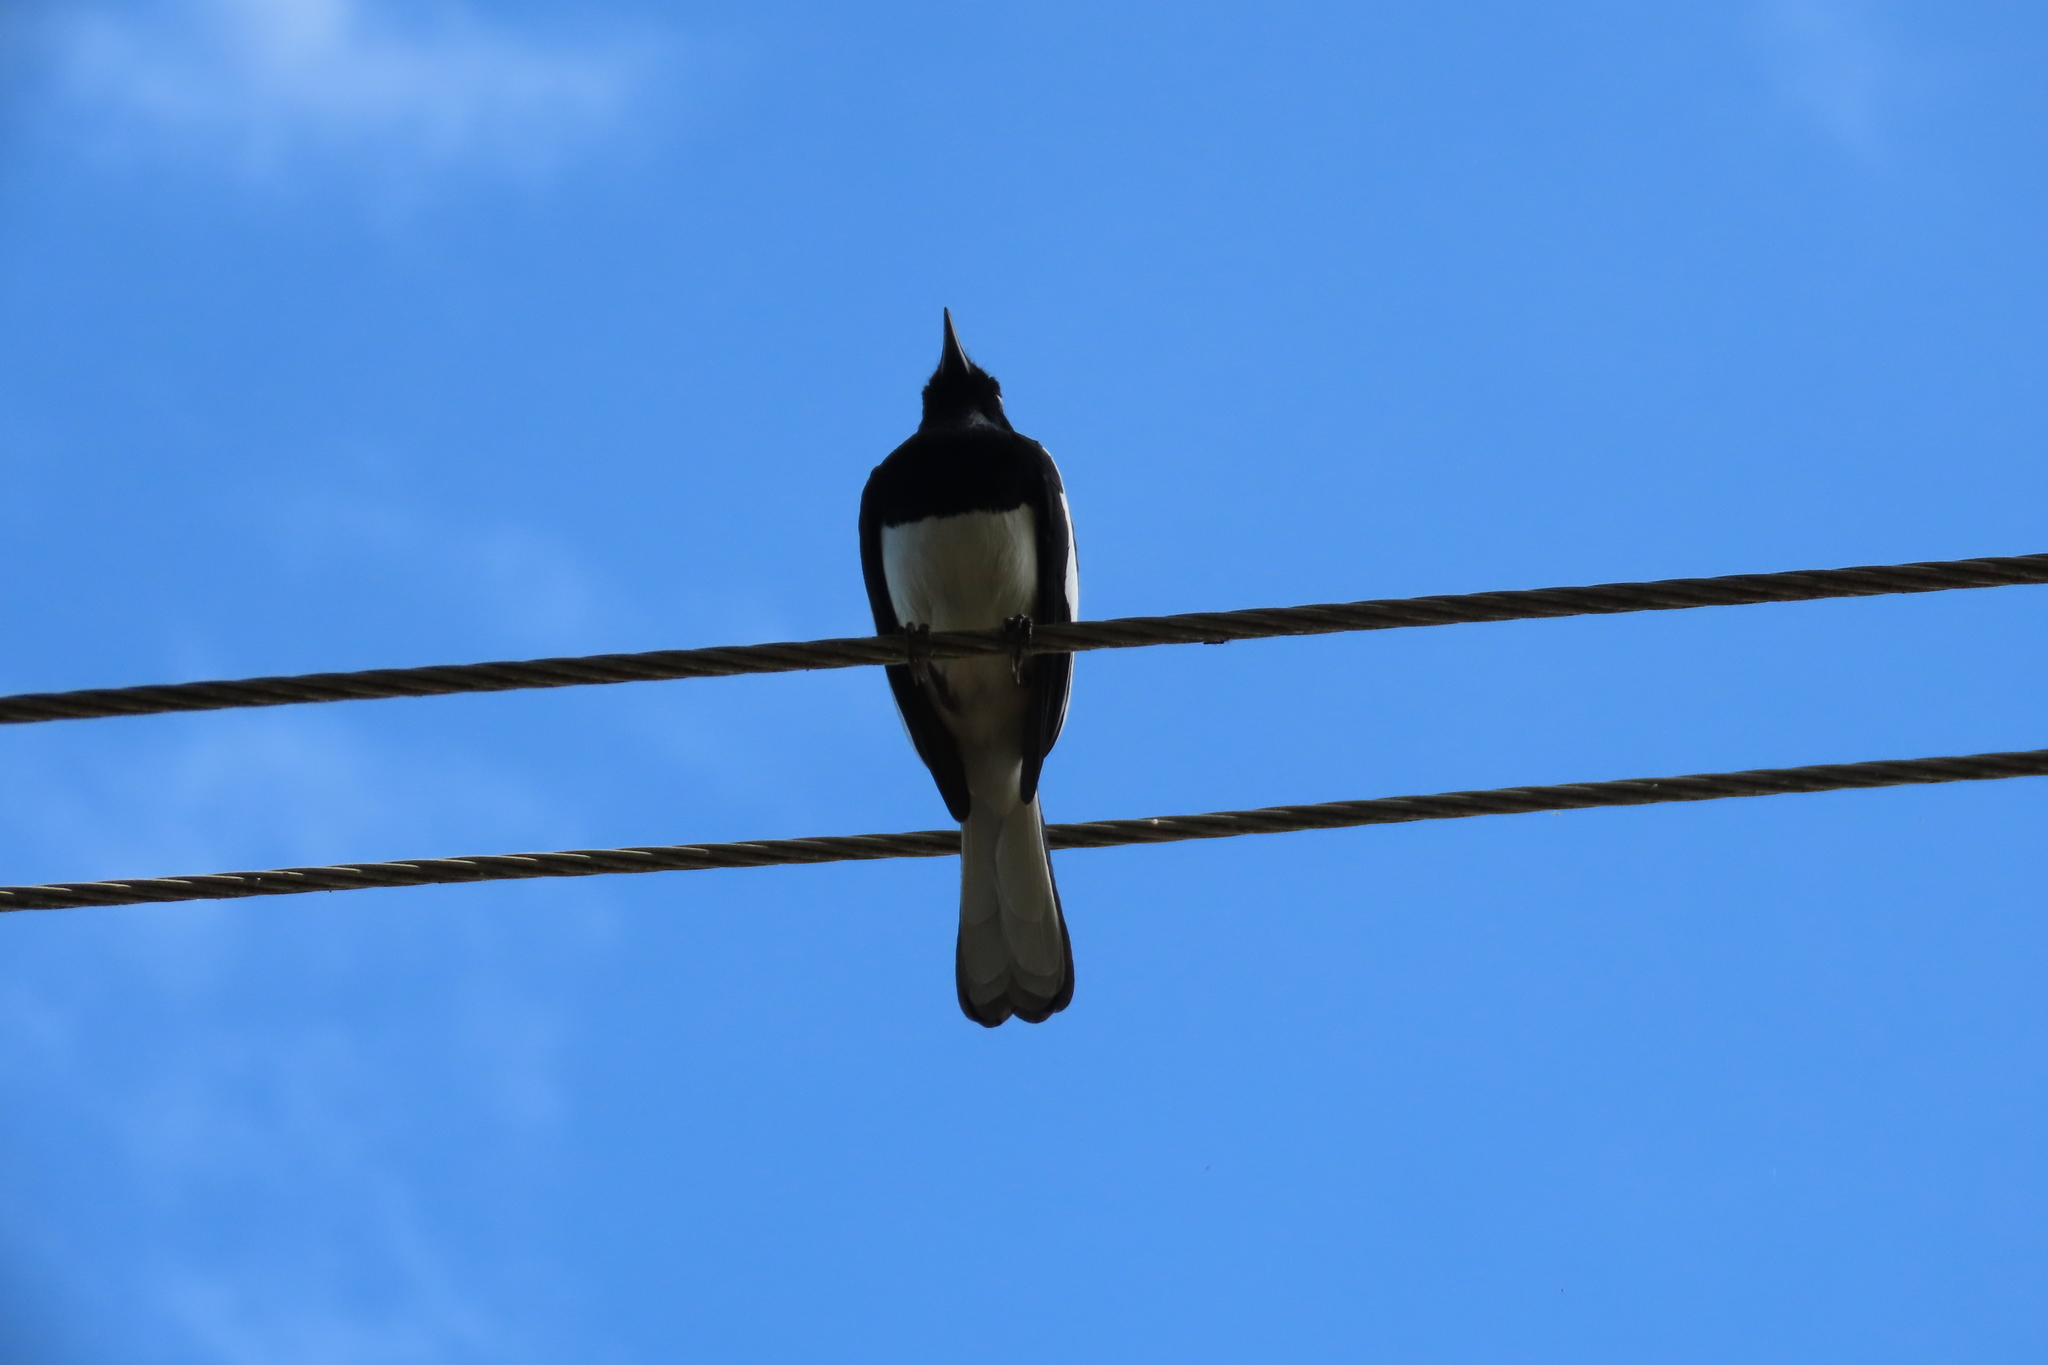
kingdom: Animalia
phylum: Chordata
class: Aves
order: Passeriformes
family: Muscicapidae
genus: Copsychus
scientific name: Copsychus saularis
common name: Oriental magpie-robin
